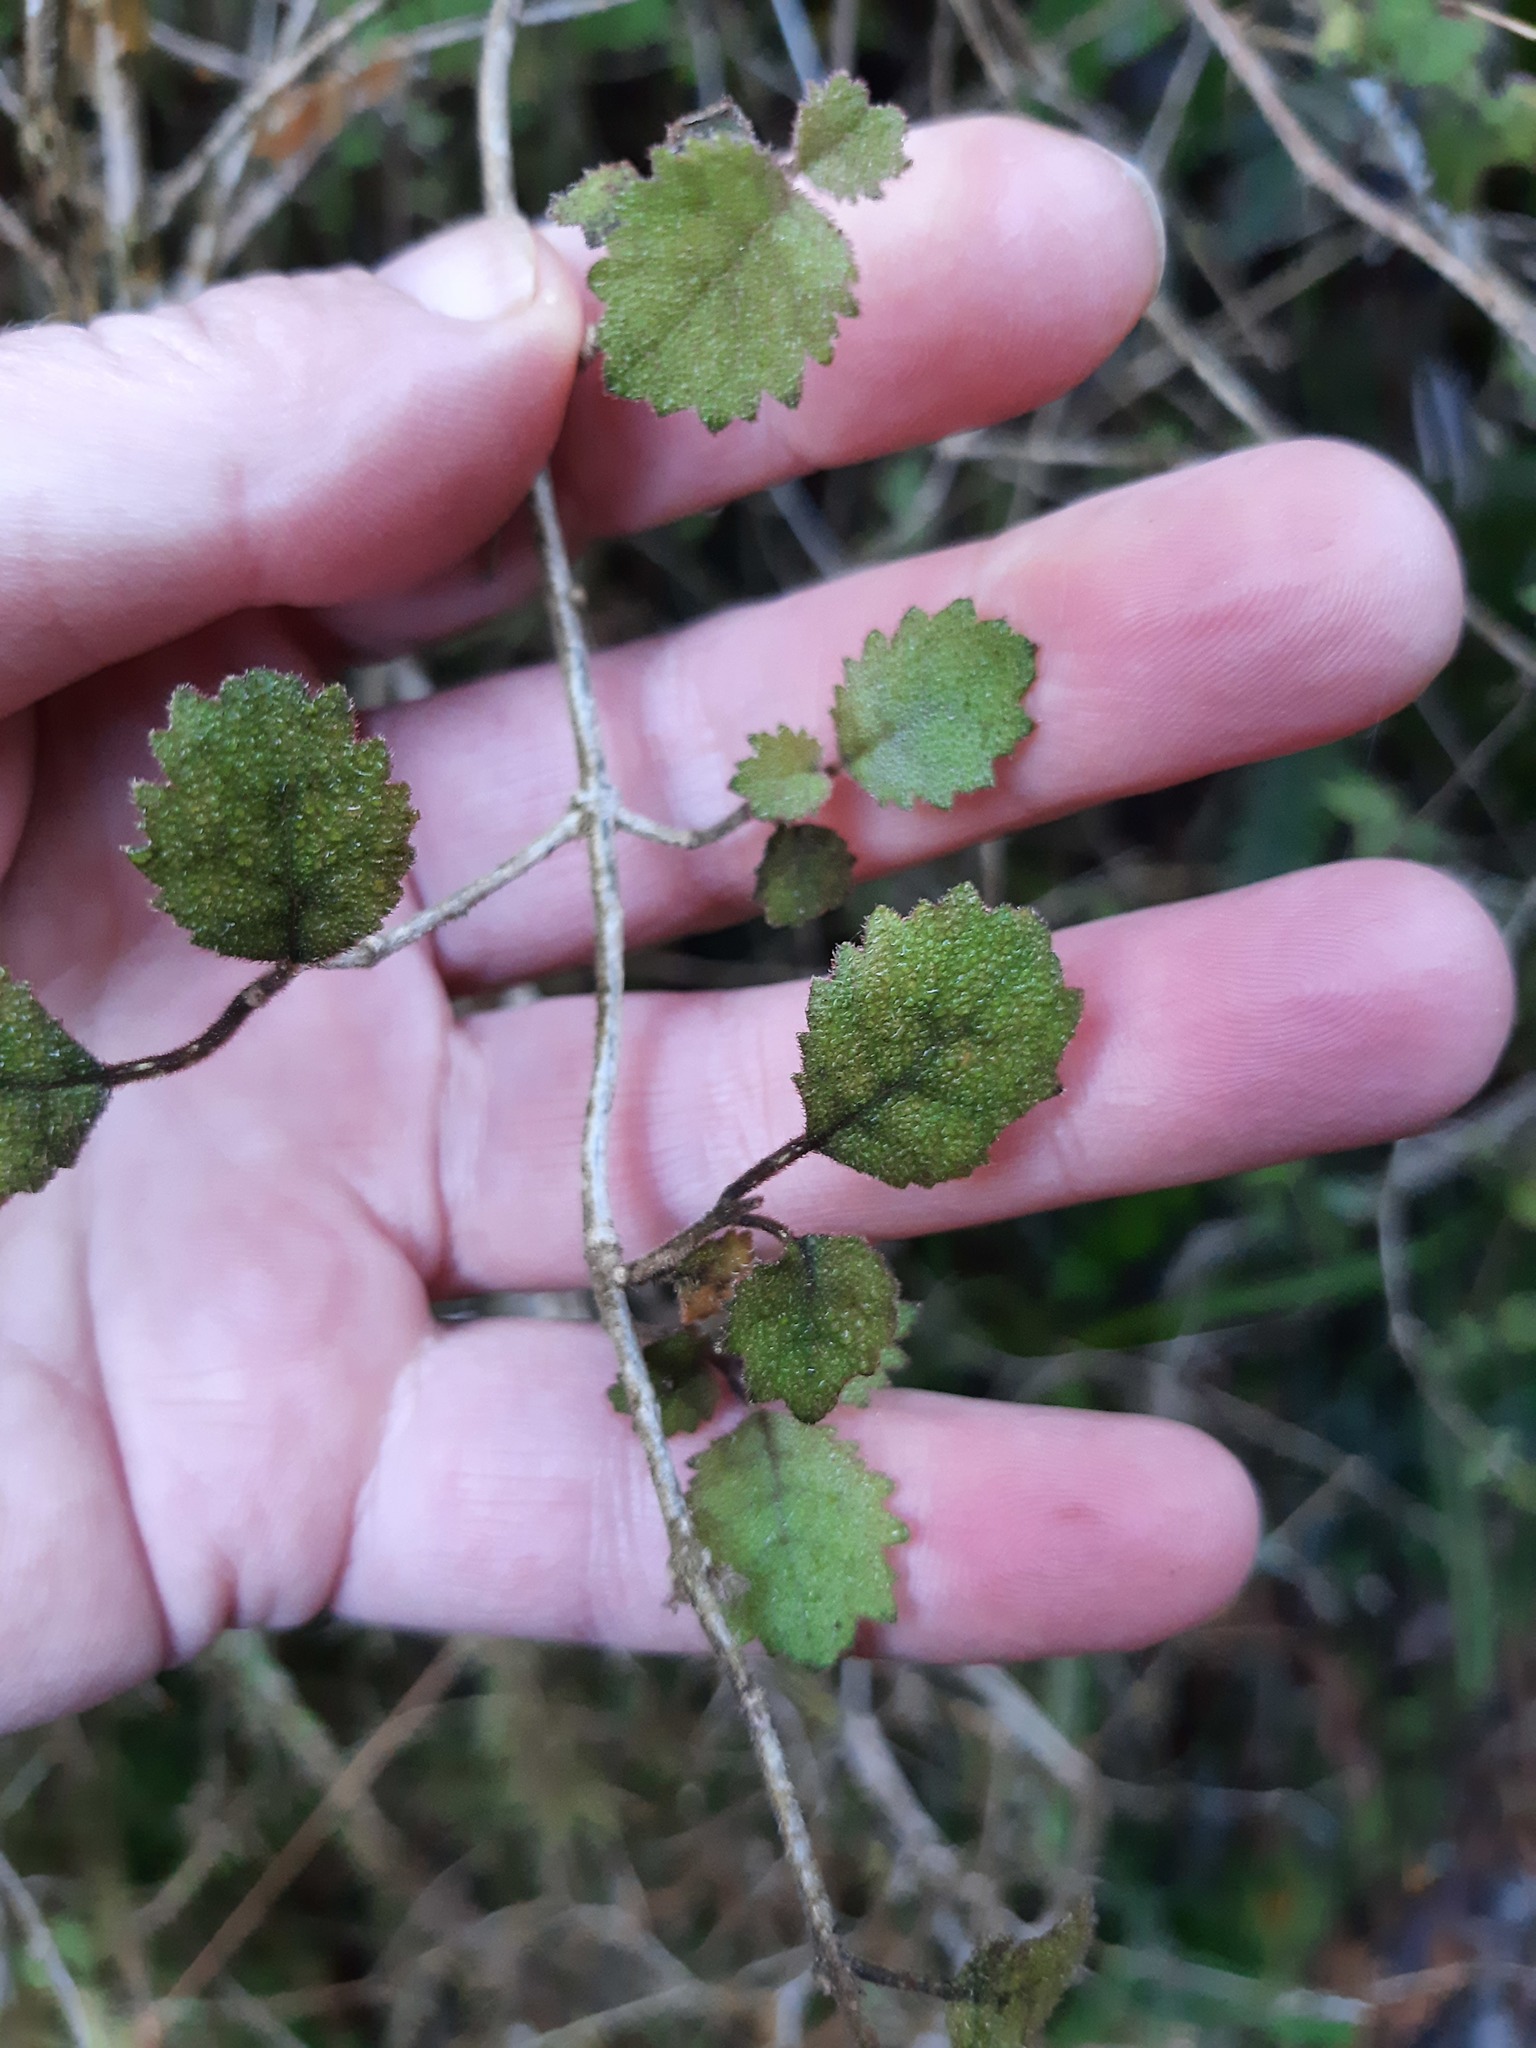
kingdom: Plantae
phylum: Tracheophyta
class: Magnoliopsida
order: Lamiales
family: Gesneriaceae
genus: Rhabdothamnus
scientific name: Rhabdothamnus solandri
